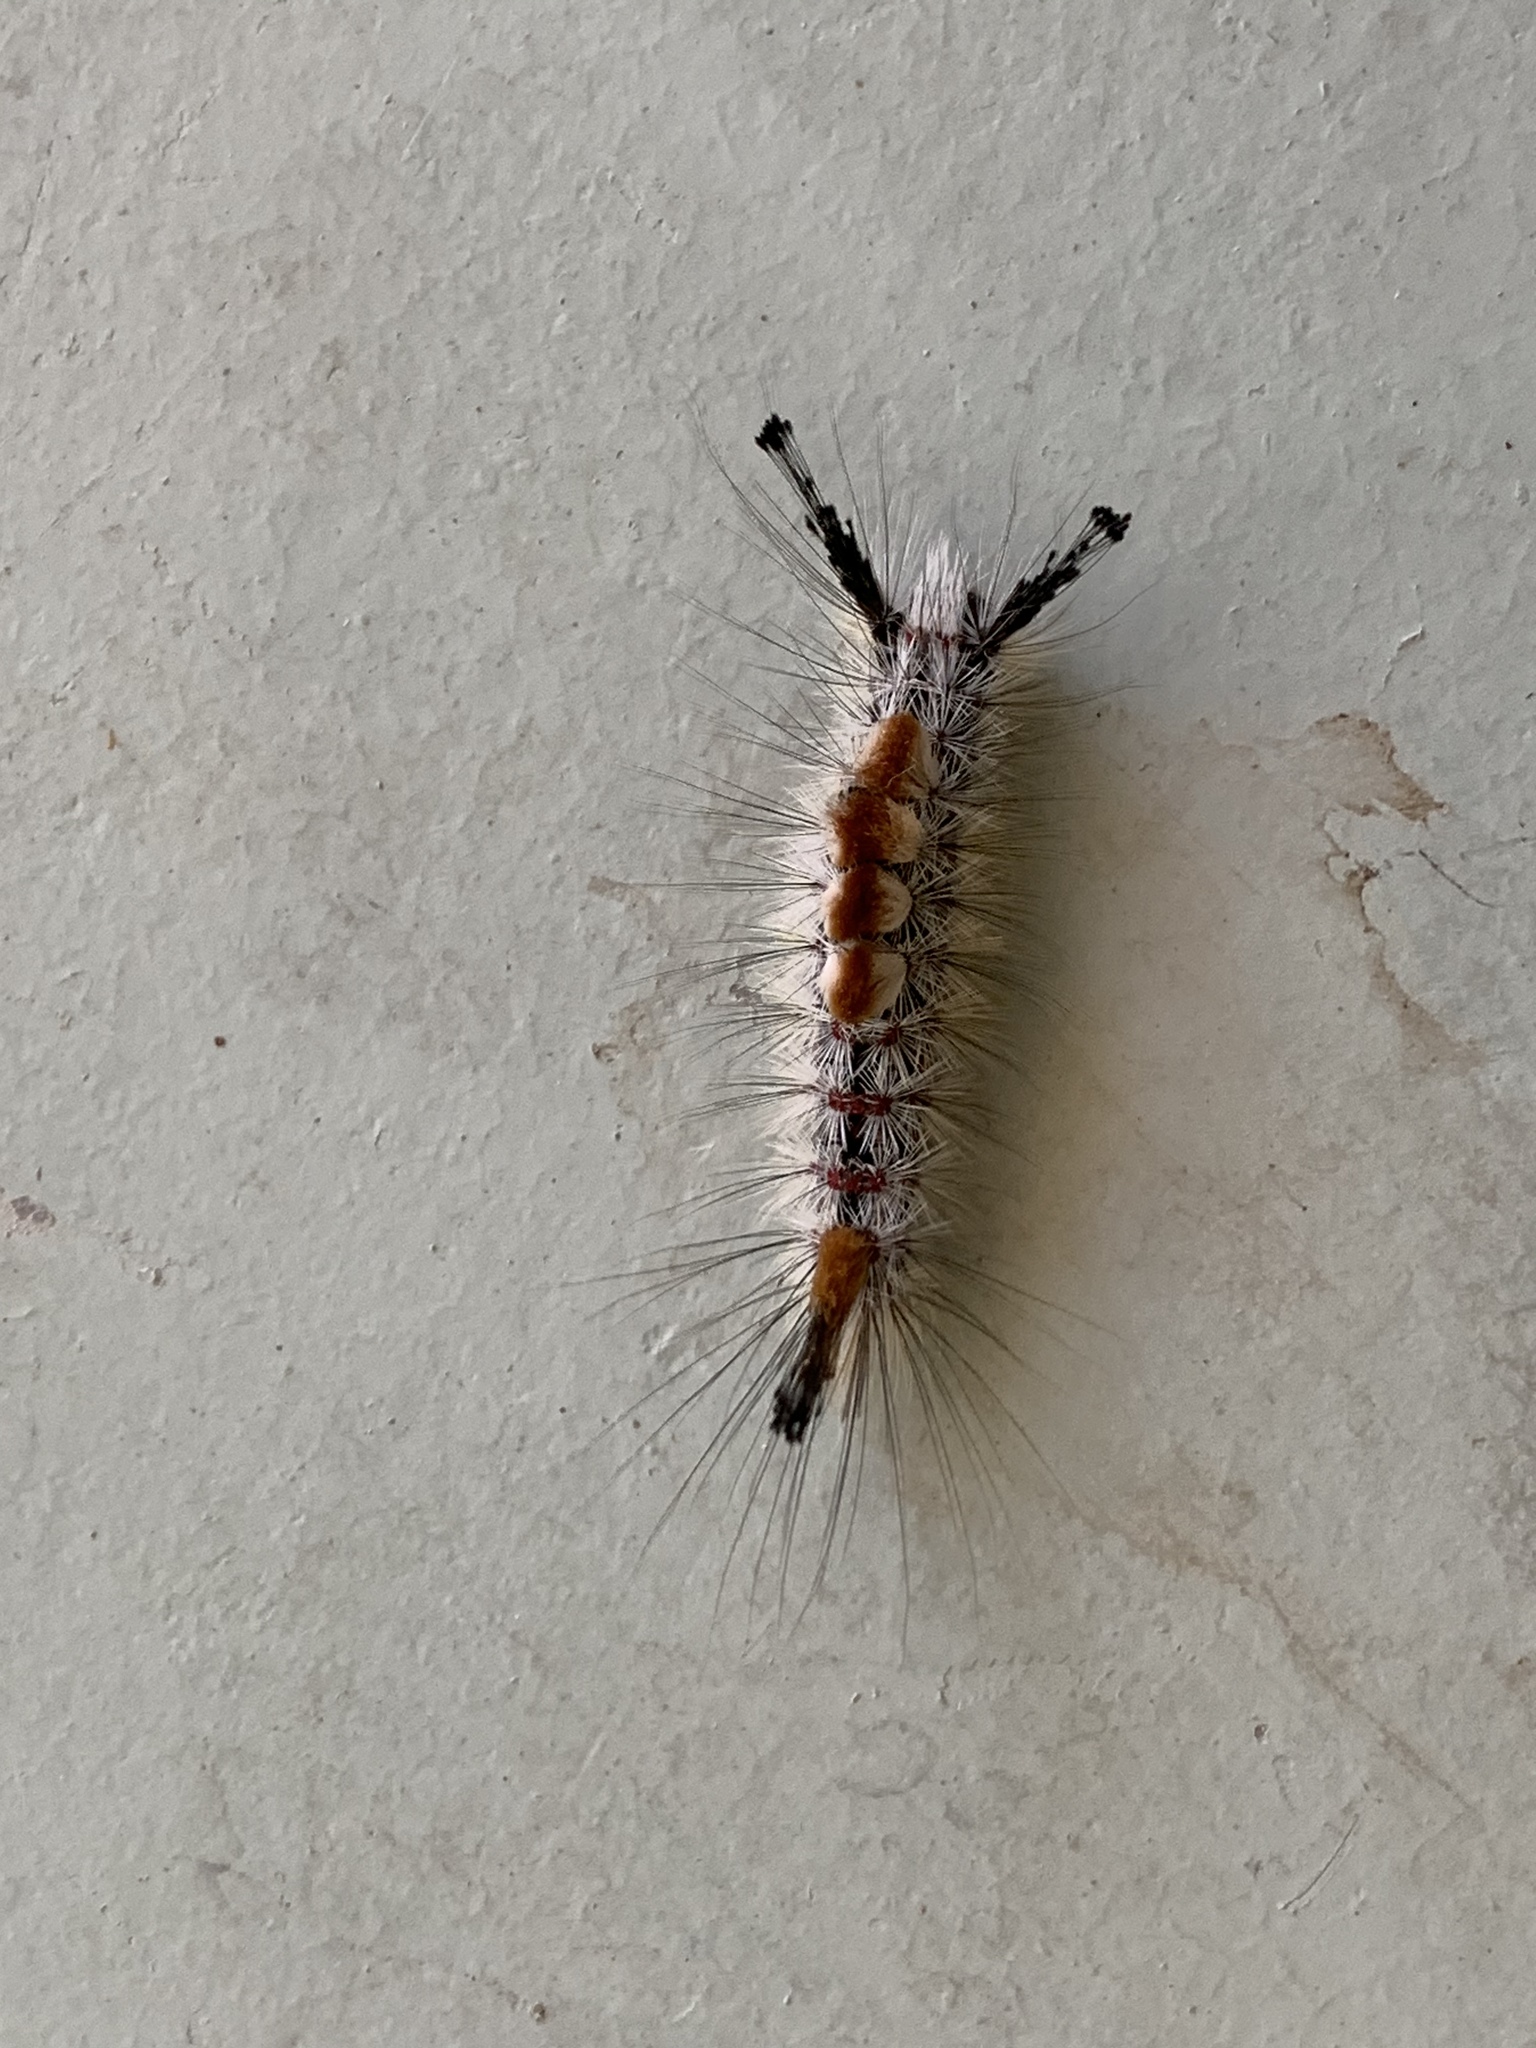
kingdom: Animalia
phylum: Arthropoda
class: Insecta
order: Lepidoptera
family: Erebidae
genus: Orgyia
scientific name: Orgyia pseudotsugata
